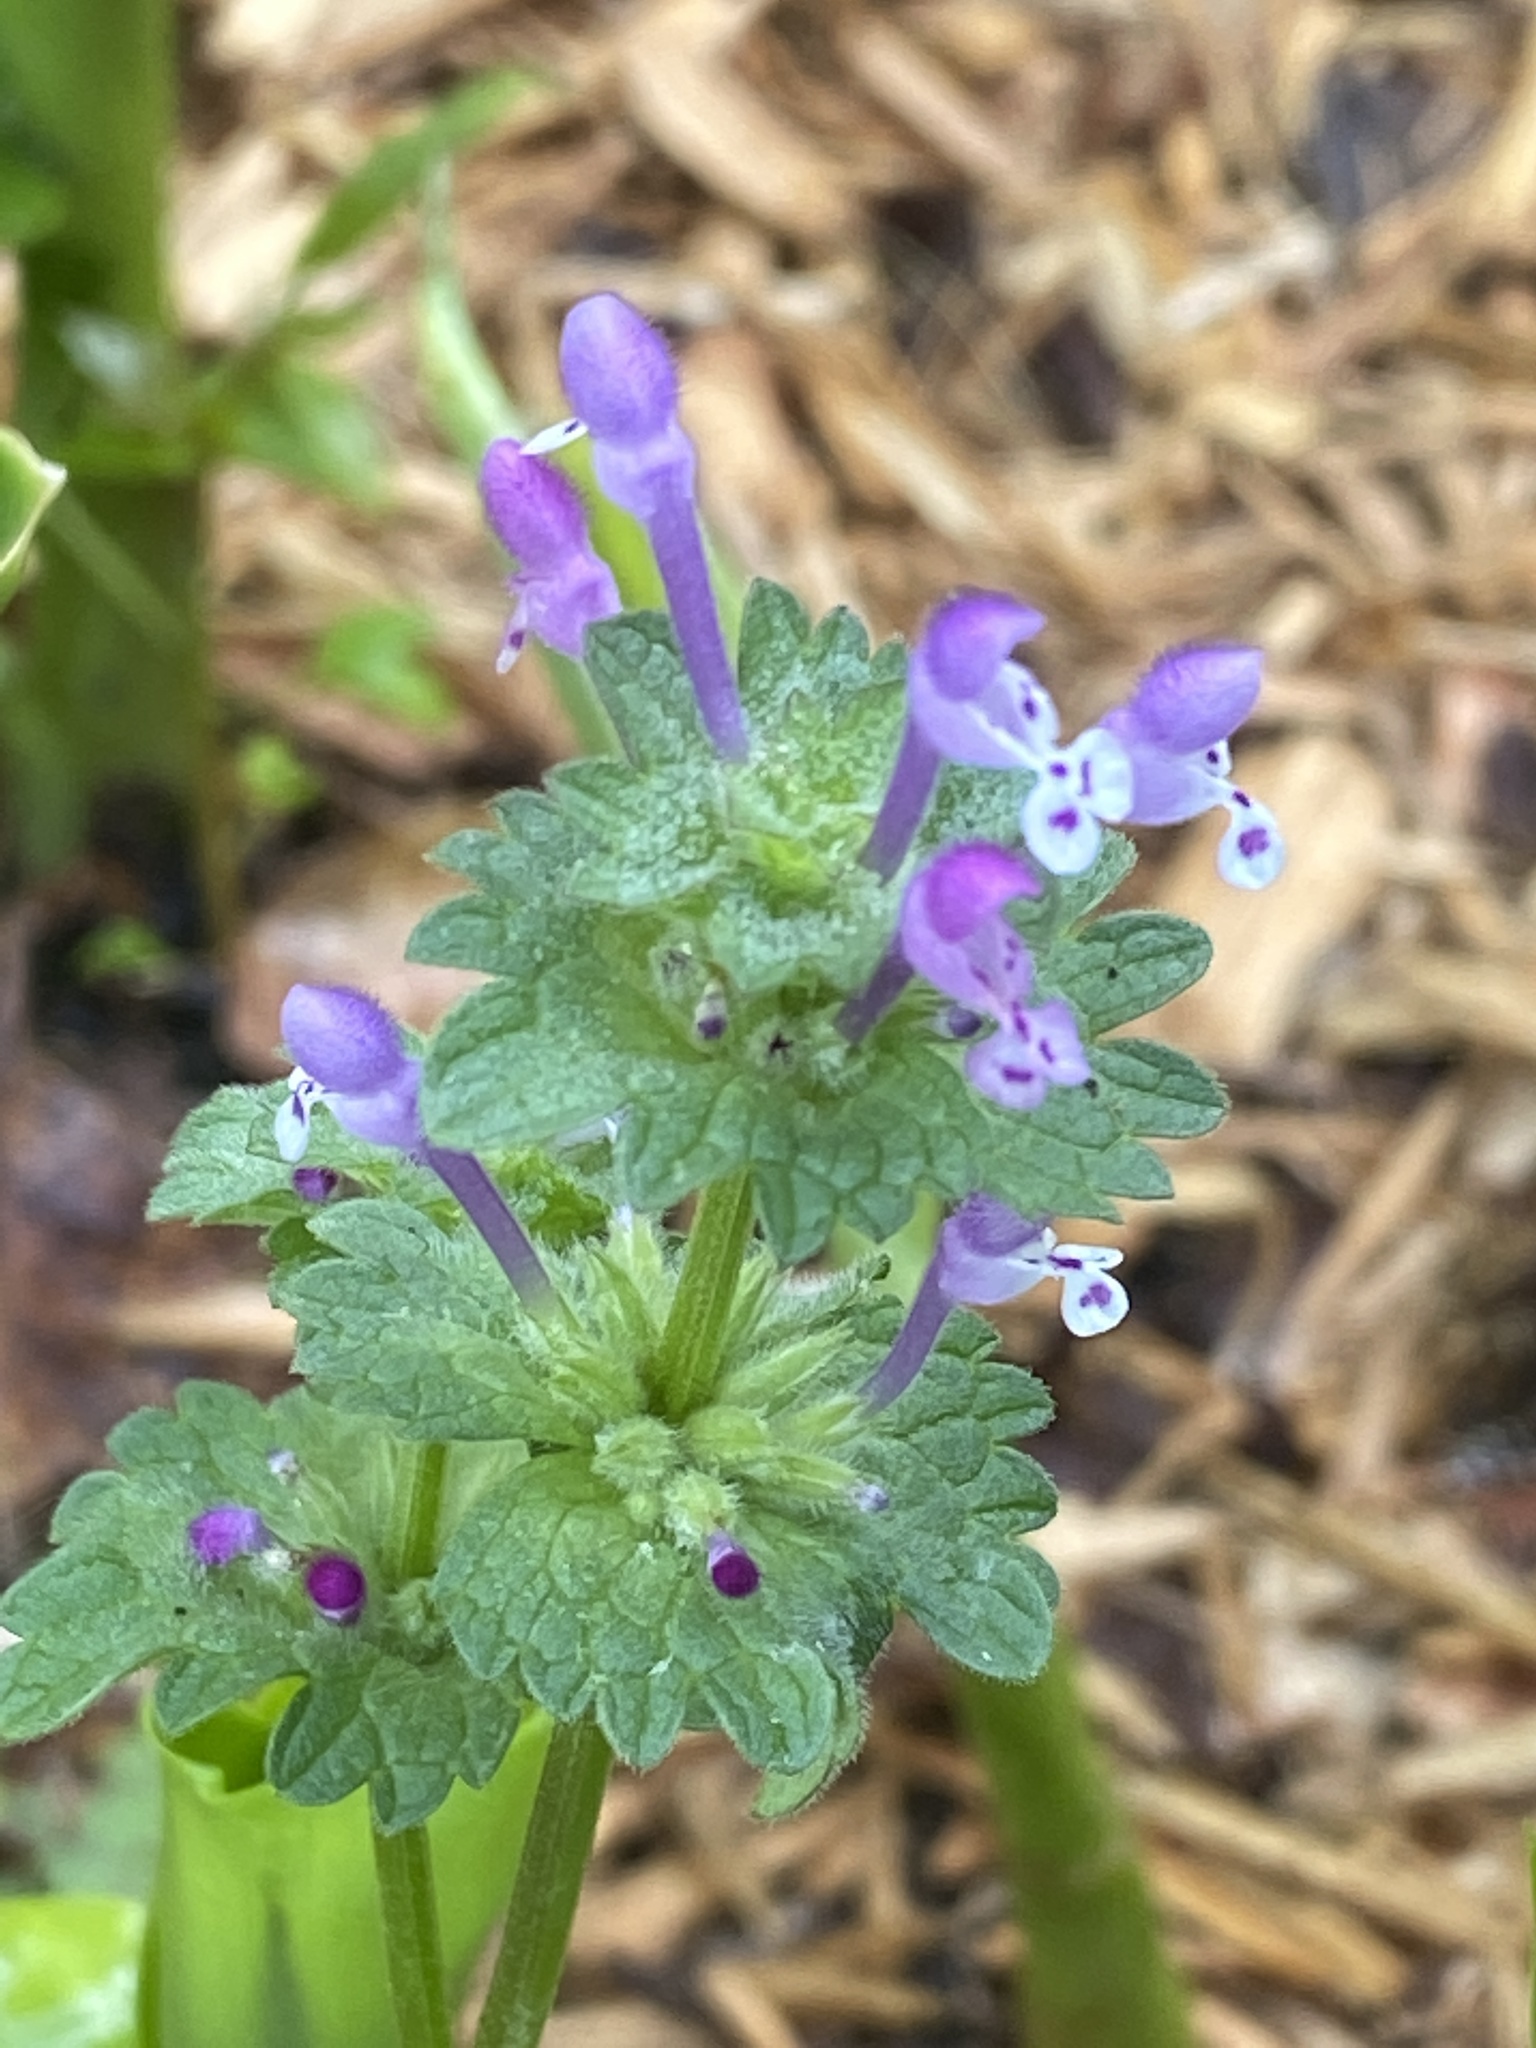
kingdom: Plantae
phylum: Tracheophyta
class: Magnoliopsida
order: Lamiales
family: Lamiaceae
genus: Lamium
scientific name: Lamium amplexicaule
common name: Henbit dead-nettle
